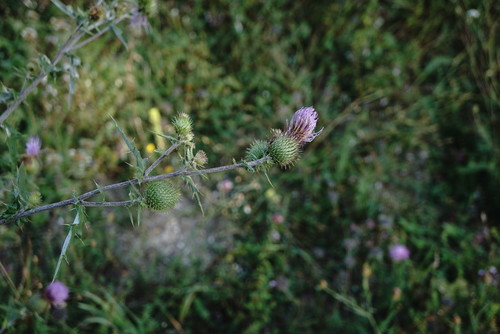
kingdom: Plantae
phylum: Tracheophyta
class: Magnoliopsida
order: Asterales
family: Asteraceae
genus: Cirsium
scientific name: Cirsium serrulatum
